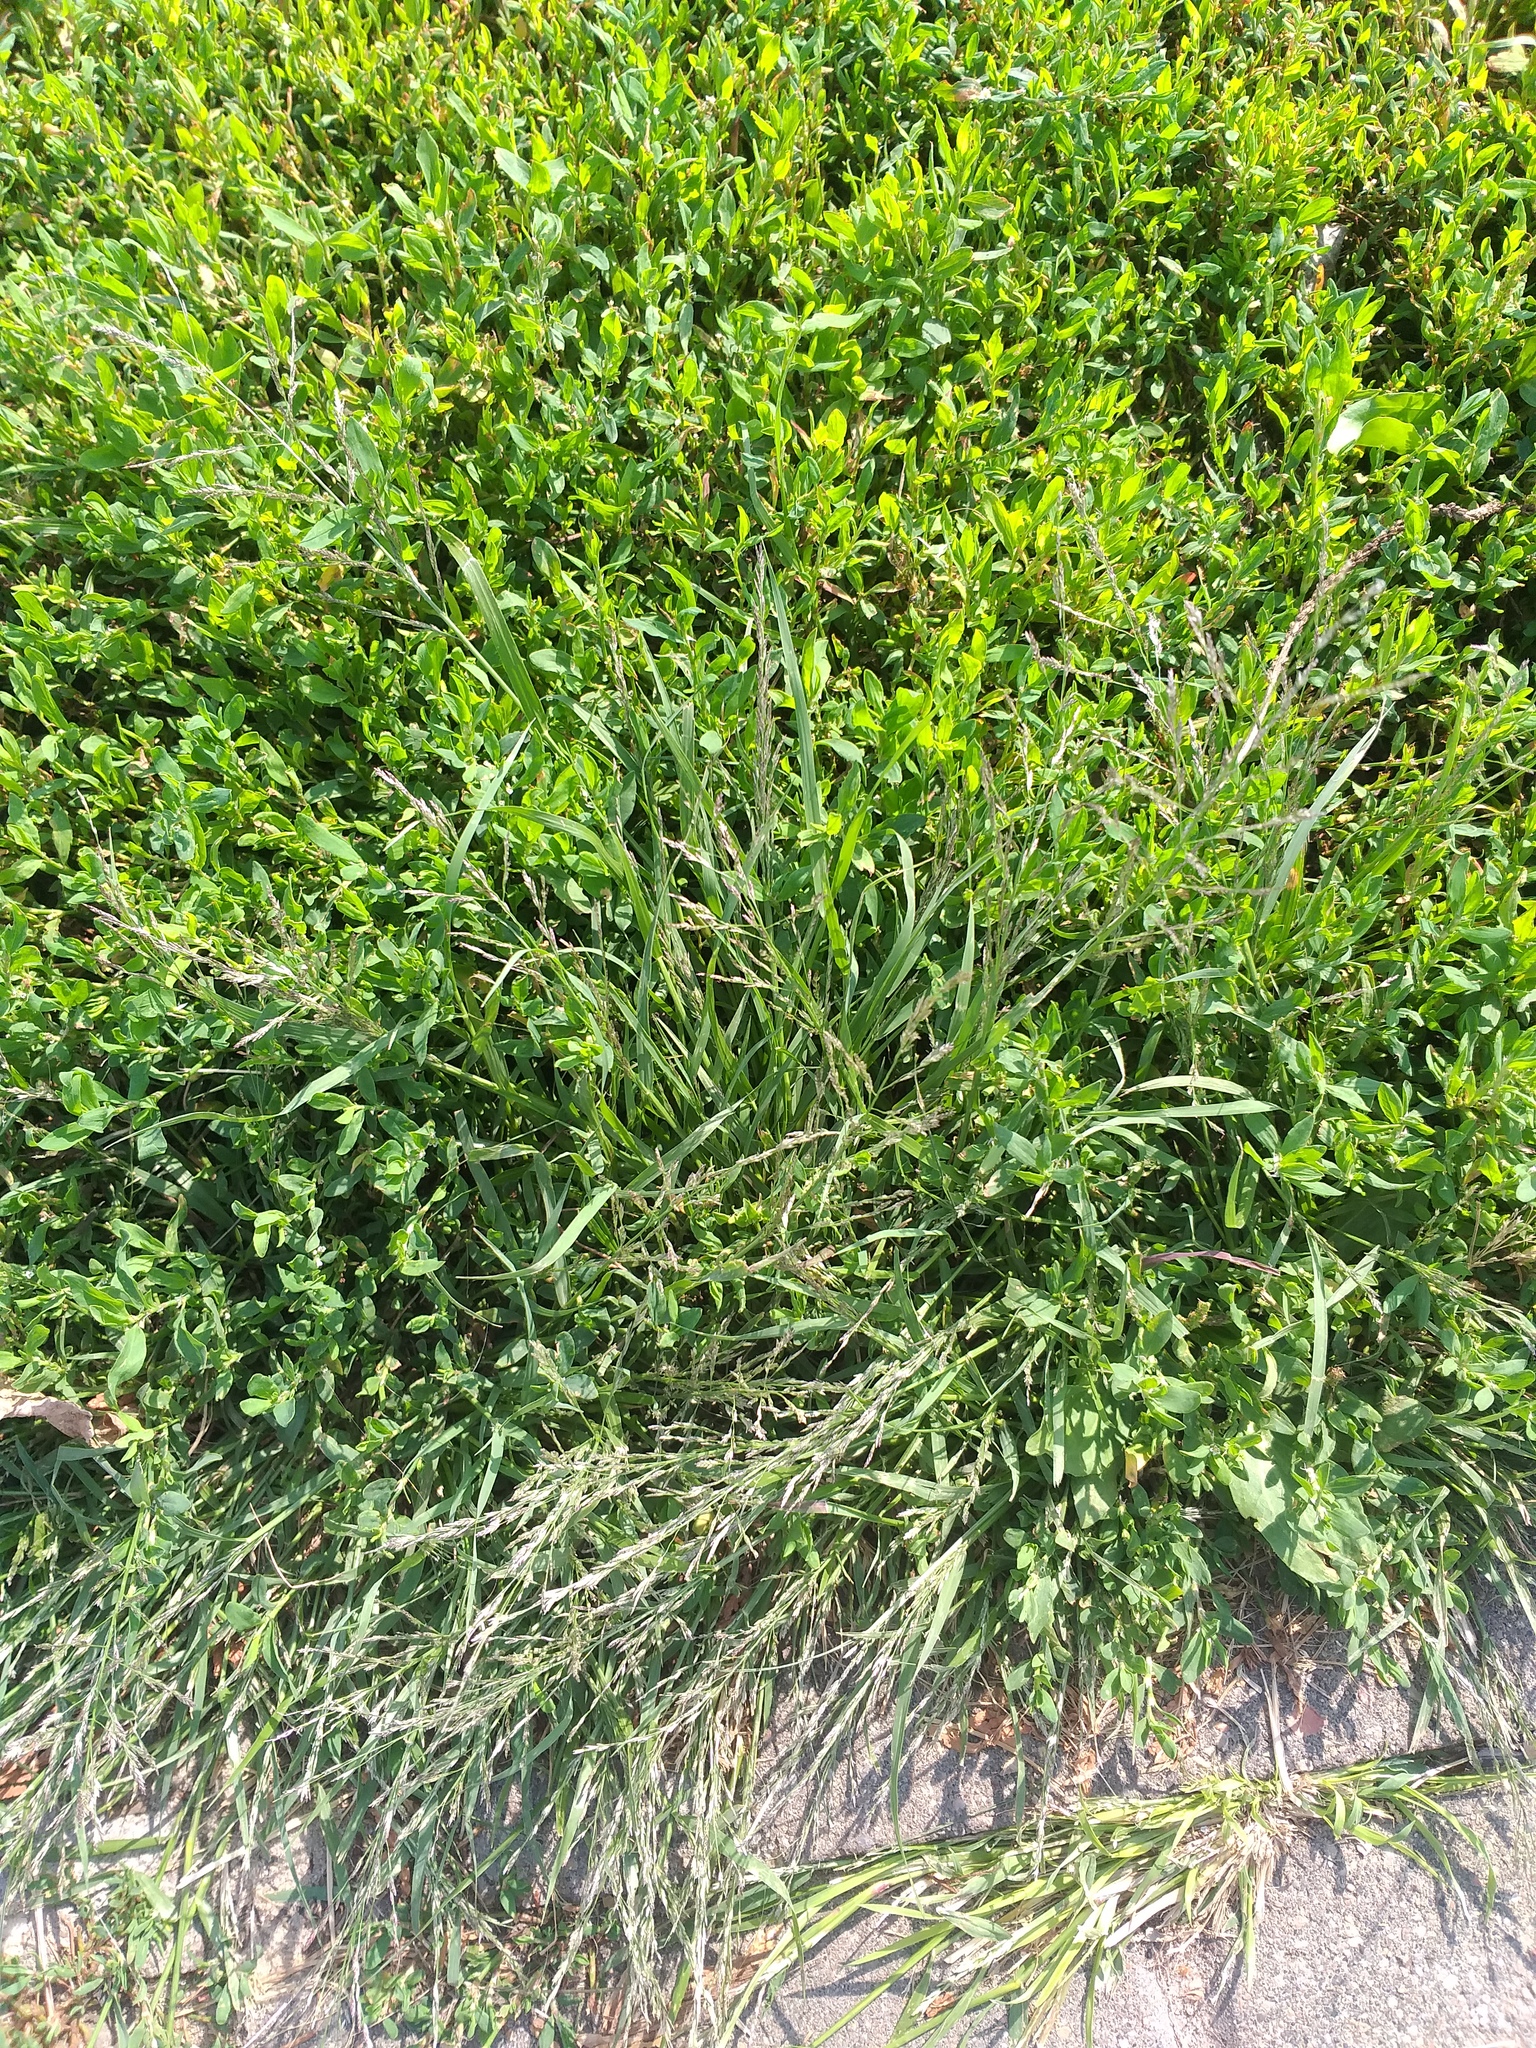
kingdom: Plantae
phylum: Tracheophyta
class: Liliopsida
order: Poales
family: Poaceae
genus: Eragrostis
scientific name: Eragrostis pilosa
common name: Indian lovegrass
